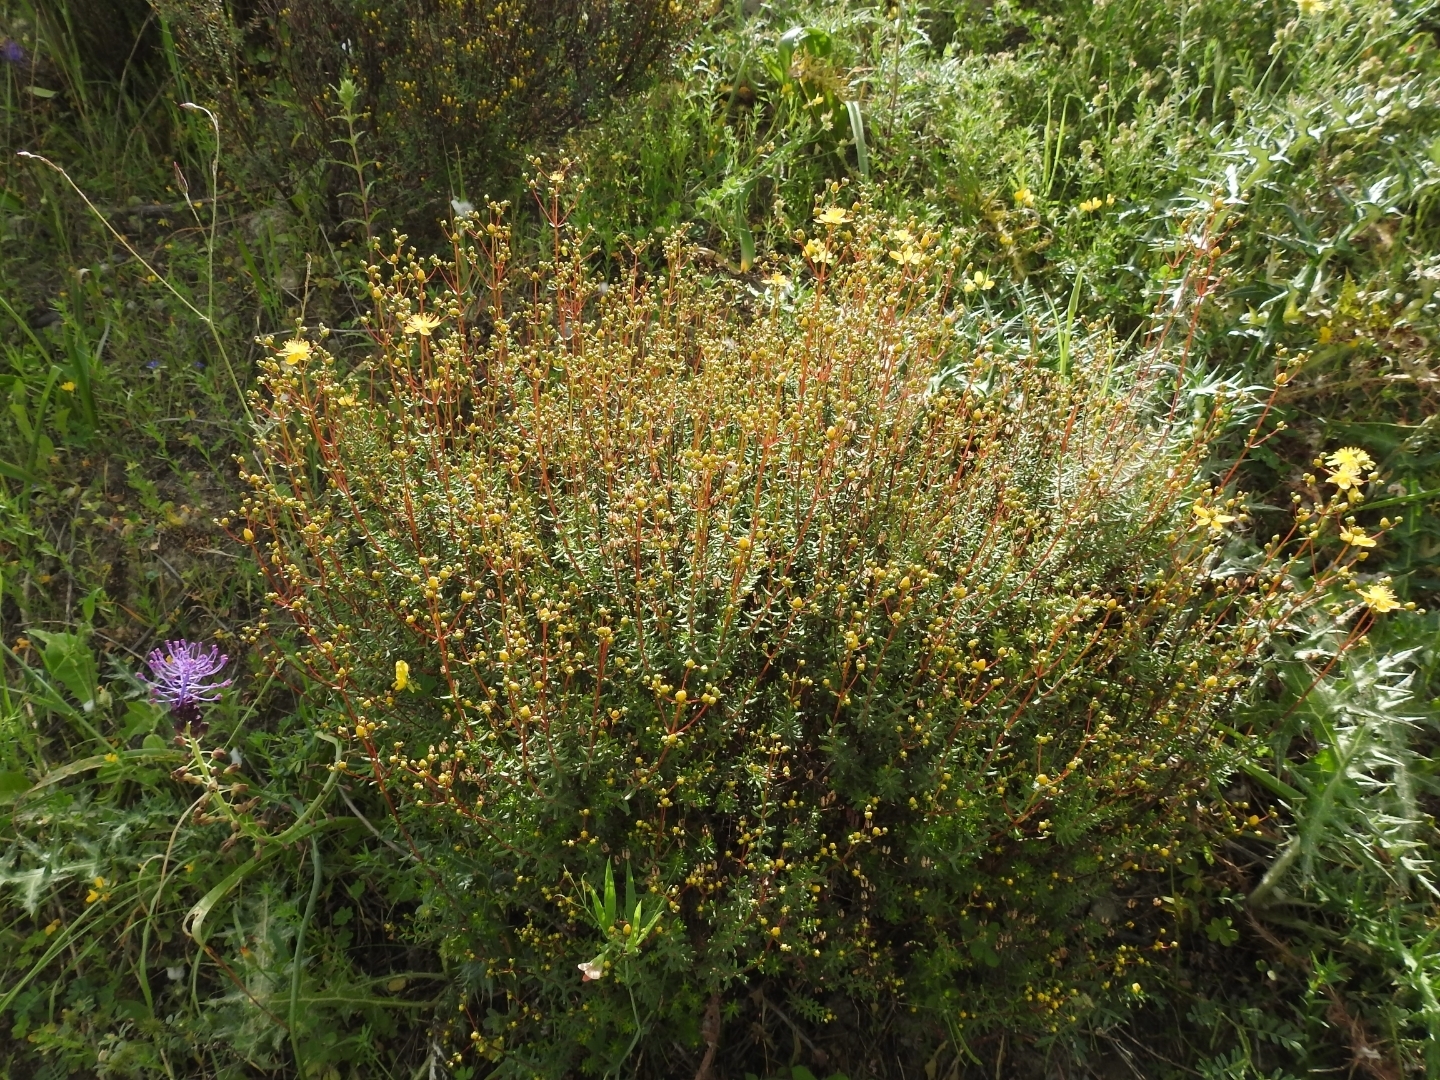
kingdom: Plantae
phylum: Tracheophyta
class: Magnoliopsida
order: Malpighiales
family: Hypericaceae
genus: Hypericum
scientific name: Hypericum empetrifolium
